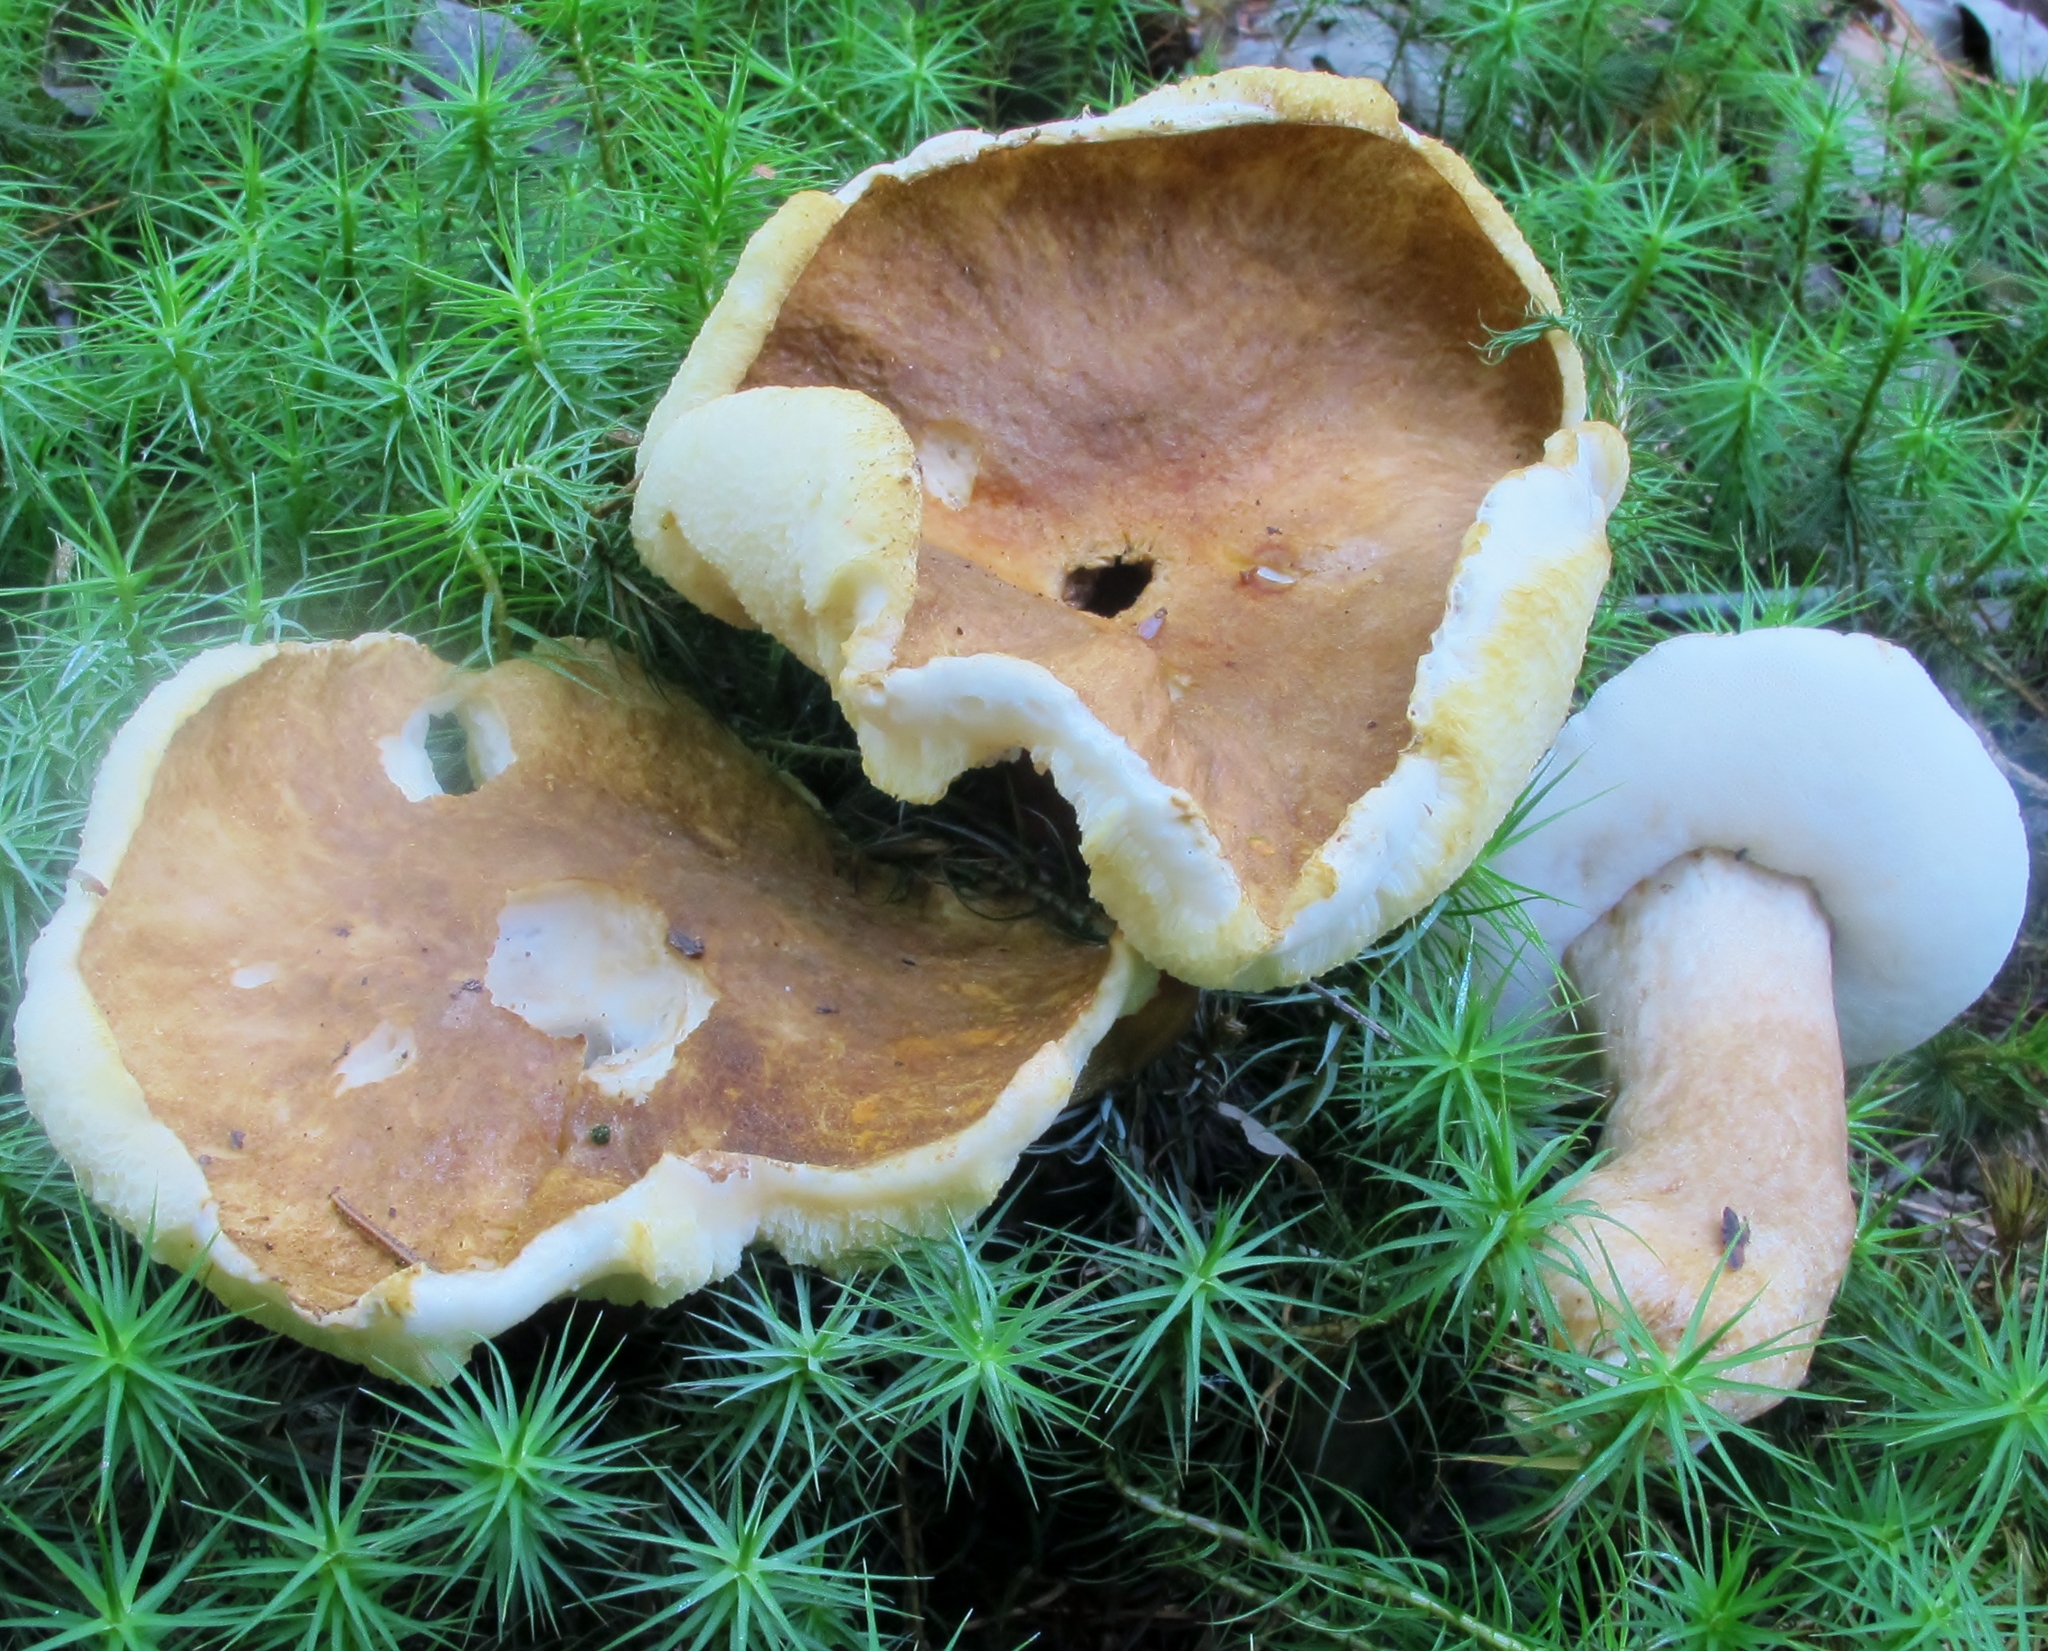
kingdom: Fungi
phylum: Basidiomycota
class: Agaricomycetes
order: Boletales
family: Gyroporaceae
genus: Gyroporus
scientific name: Gyroporus castaneus
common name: Chestnut bolete
